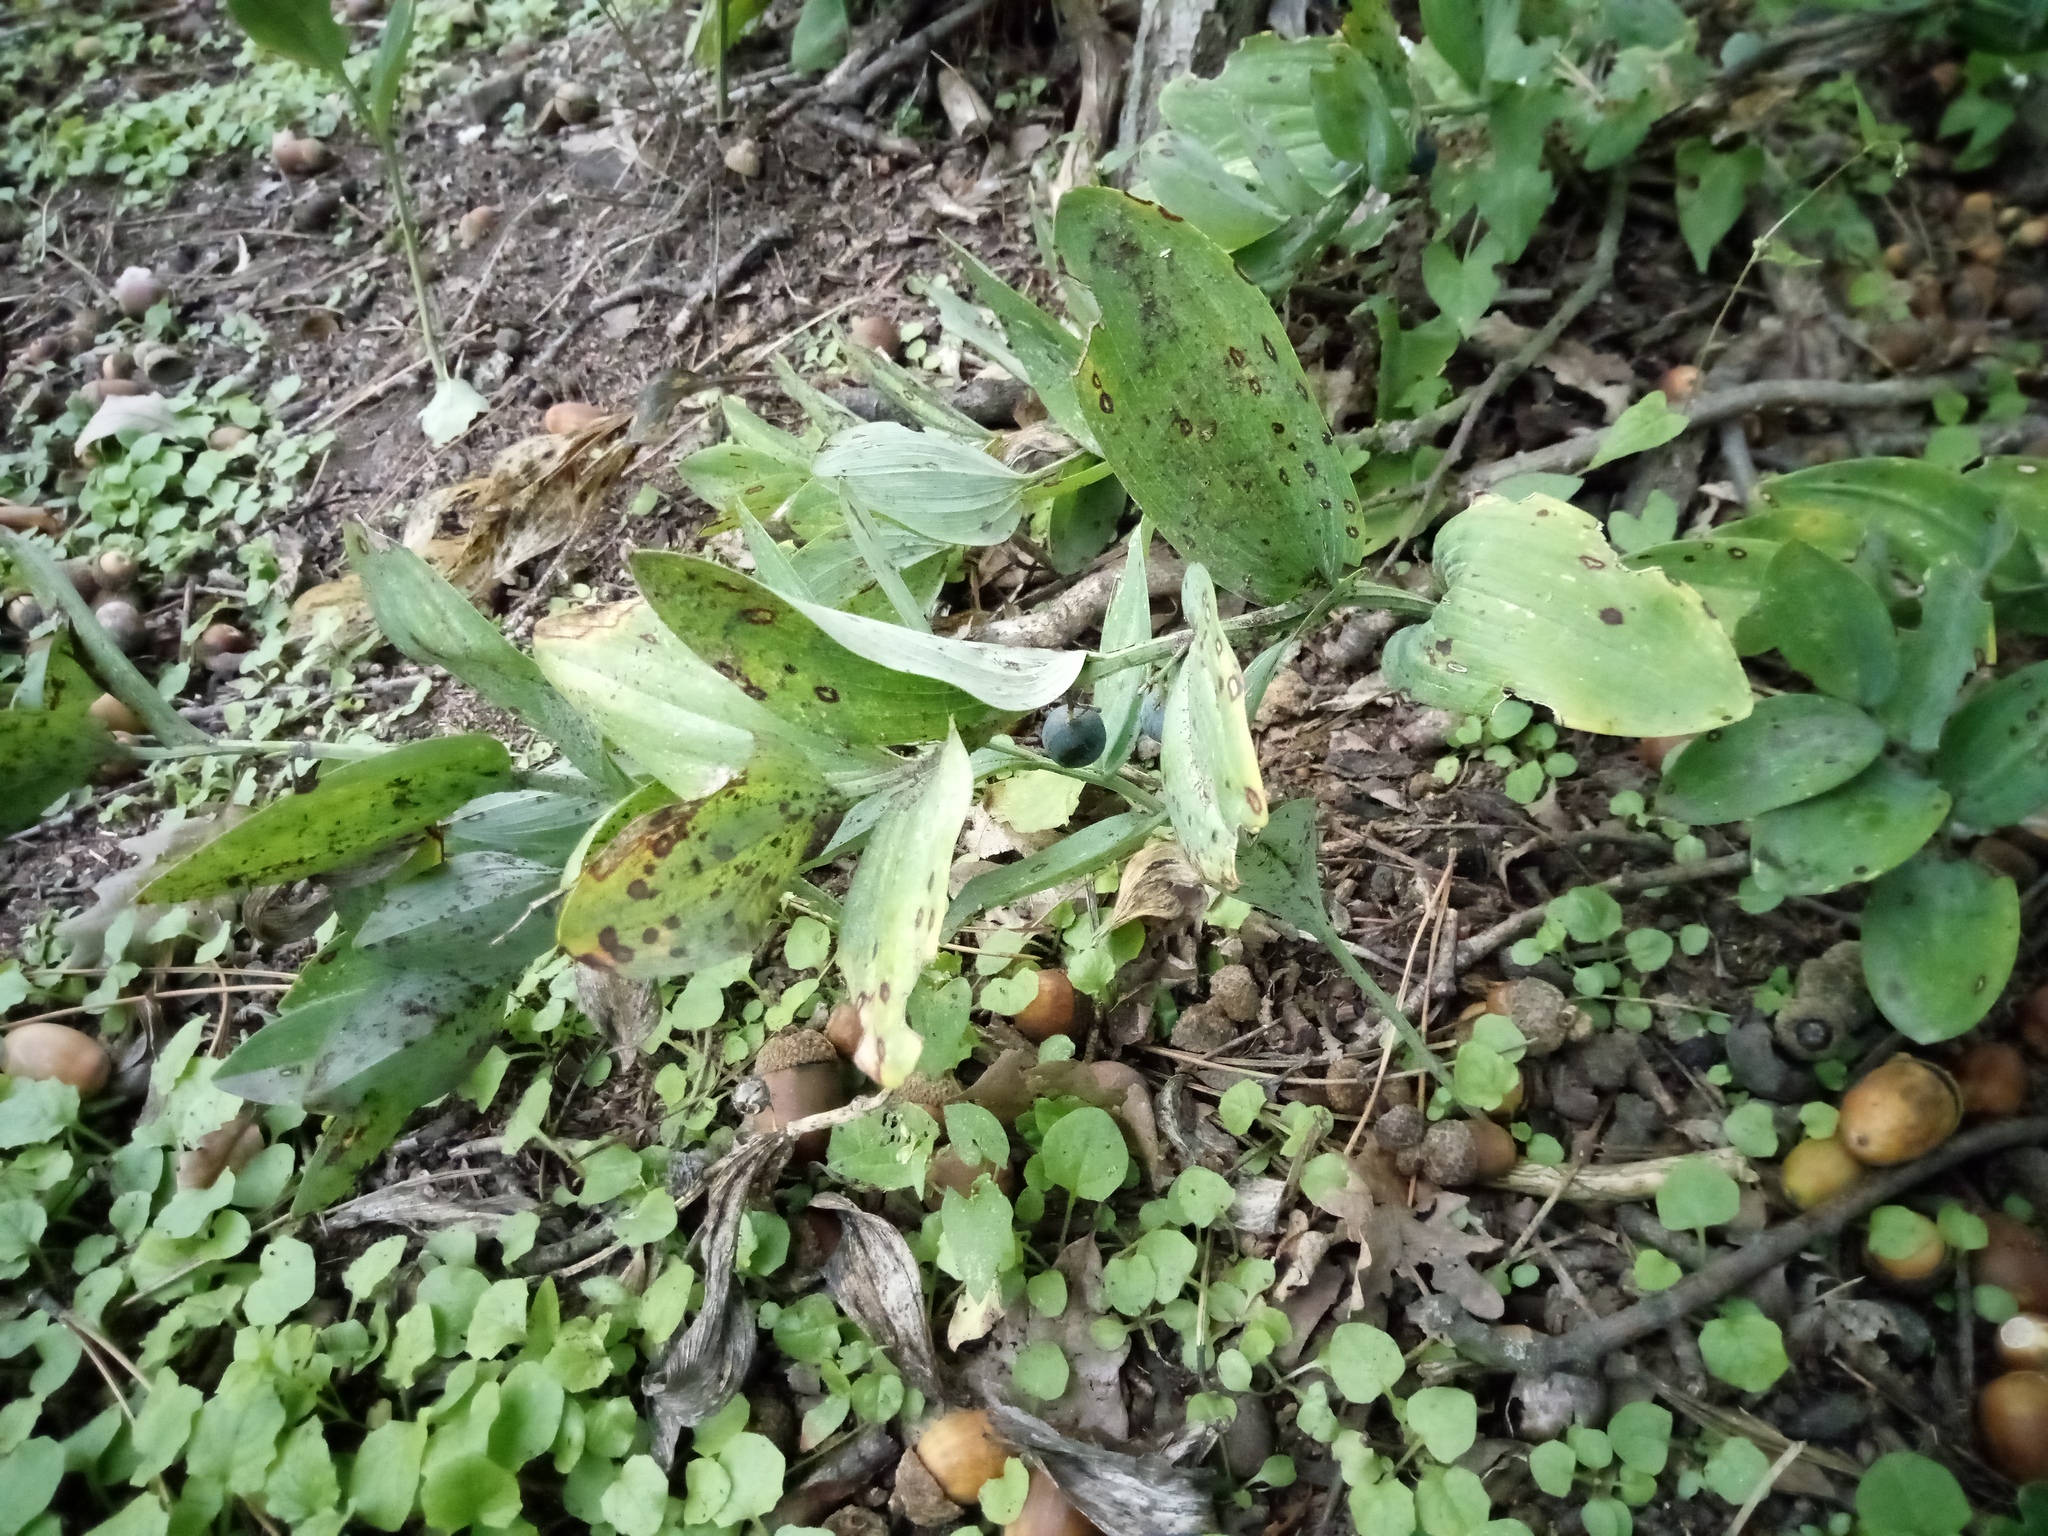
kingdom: Plantae
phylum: Tracheophyta
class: Liliopsida
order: Asparagales
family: Asparagaceae
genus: Polygonatum
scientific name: Polygonatum odoratum
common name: Angular solomon's-seal
